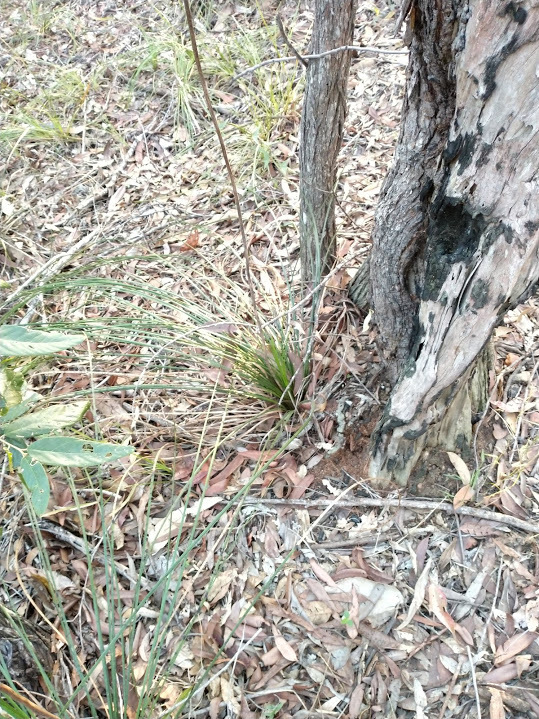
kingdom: Plantae
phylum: Tracheophyta
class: Liliopsida
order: Asparagales
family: Asphodelaceae
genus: Xanthorrhoea
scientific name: Xanthorrhoea macronema
